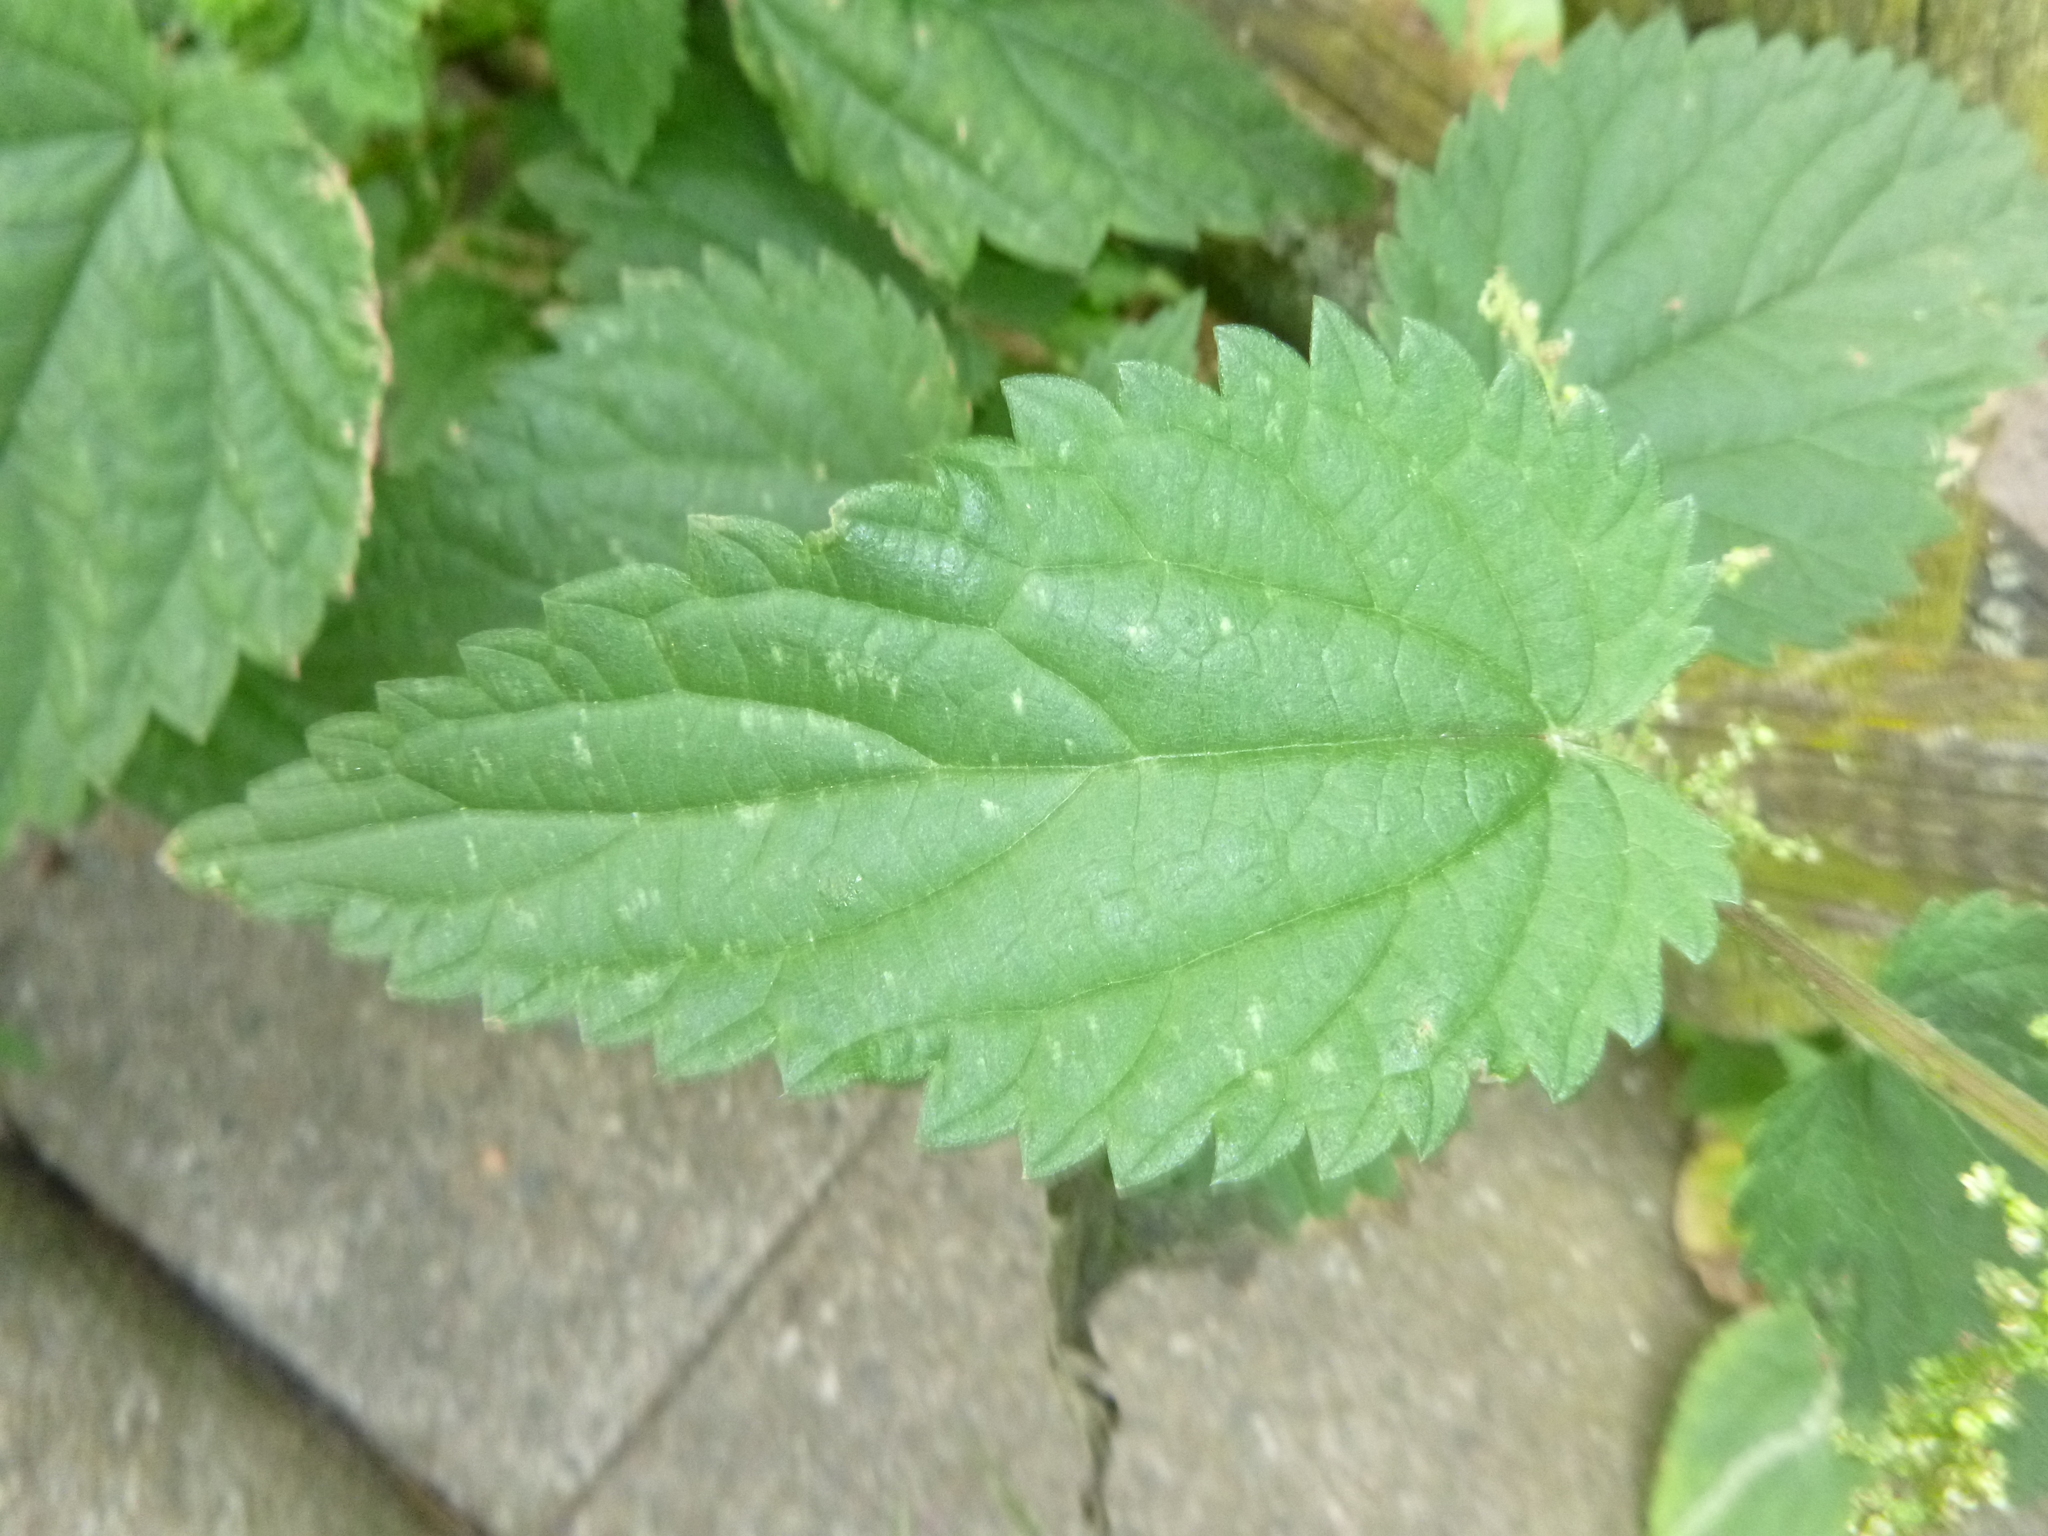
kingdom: Plantae
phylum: Tracheophyta
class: Magnoliopsida
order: Rosales
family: Urticaceae
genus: Urtica
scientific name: Urtica dioica
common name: Common nettle
